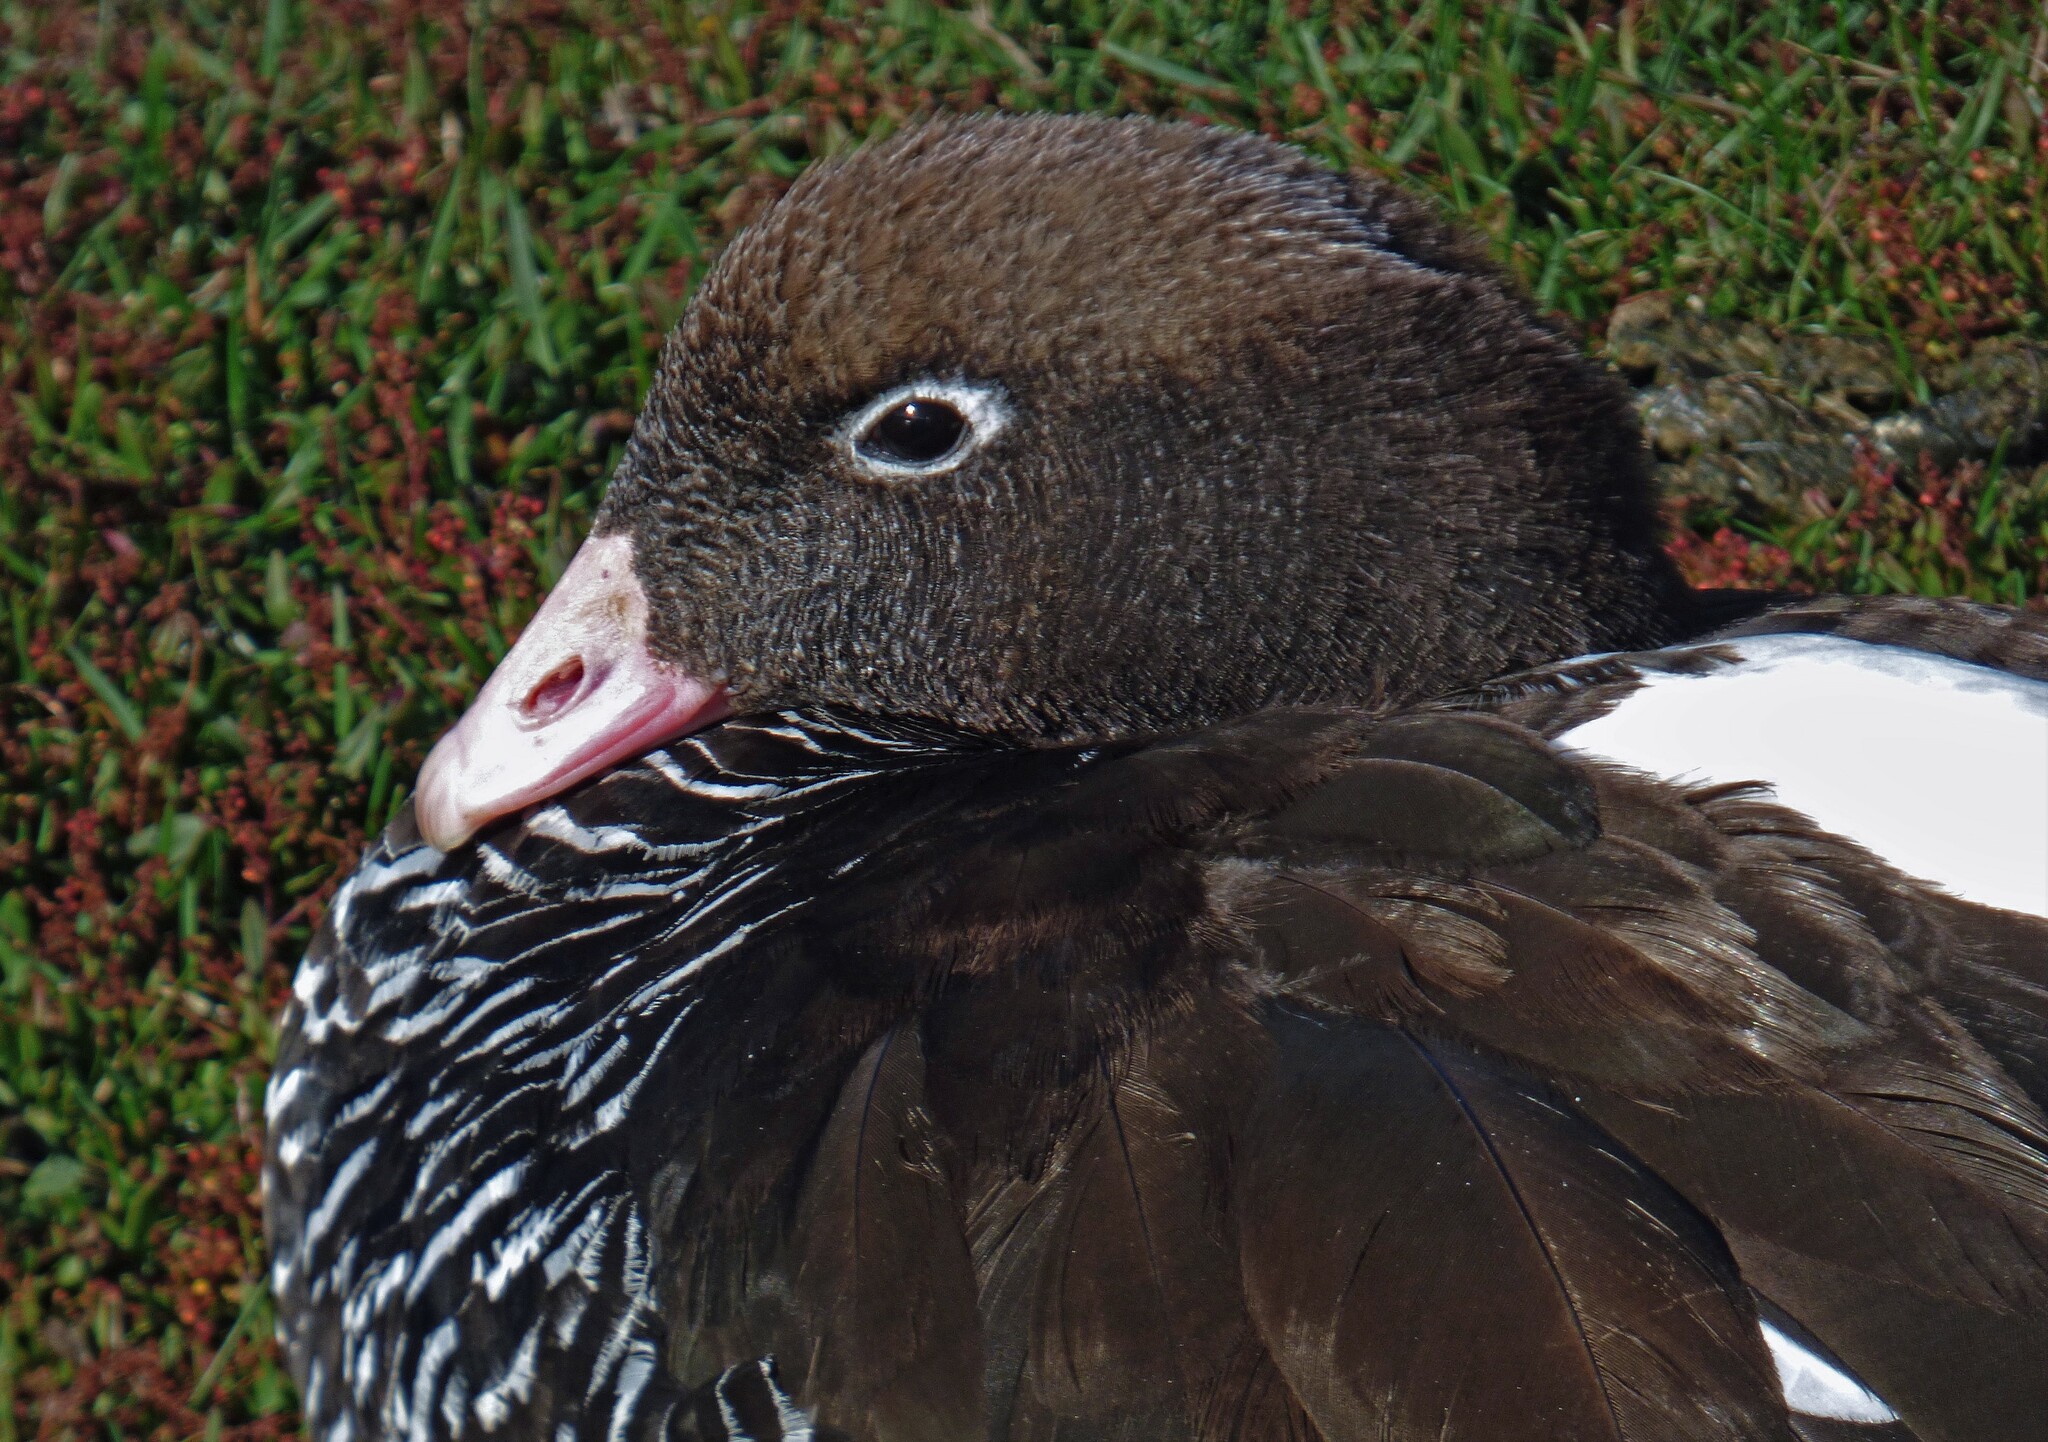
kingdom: Animalia
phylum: Chordata
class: Aves
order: Anseriformes
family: Anatidae
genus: Chloephaga
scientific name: Chloephaga hybrida
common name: Kelp goose
